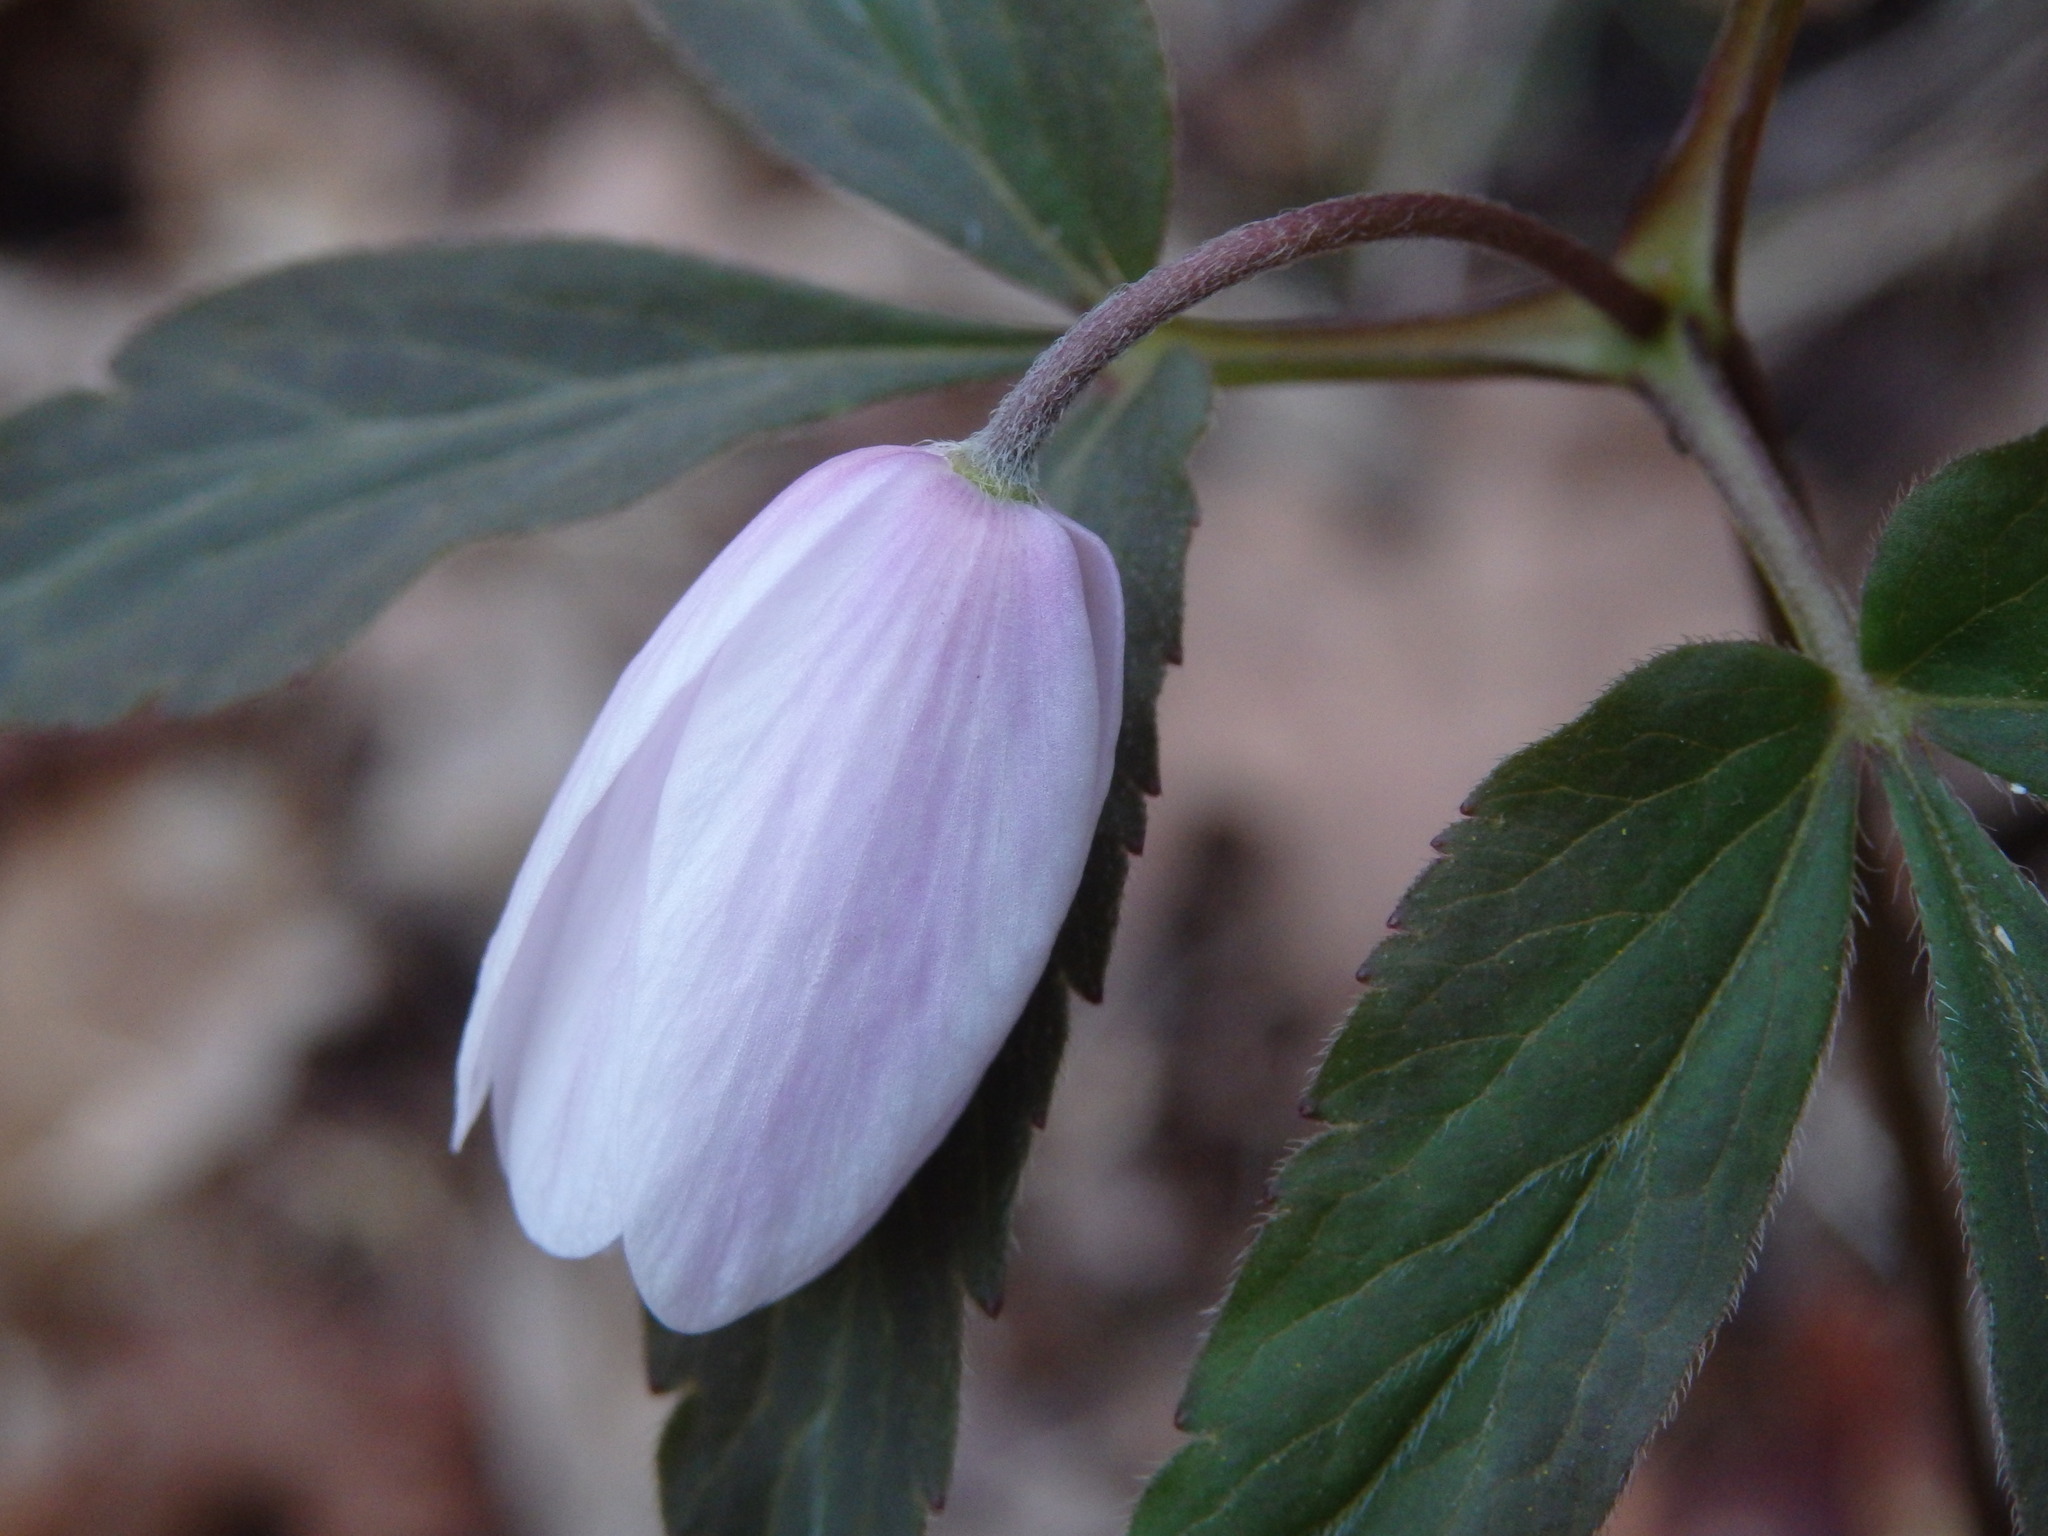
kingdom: Plantae
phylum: Tracheophyta
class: Magnoliopsida
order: Ranunculales
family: Ranunculaceae
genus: Anemone
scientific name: Anemone trifolia
